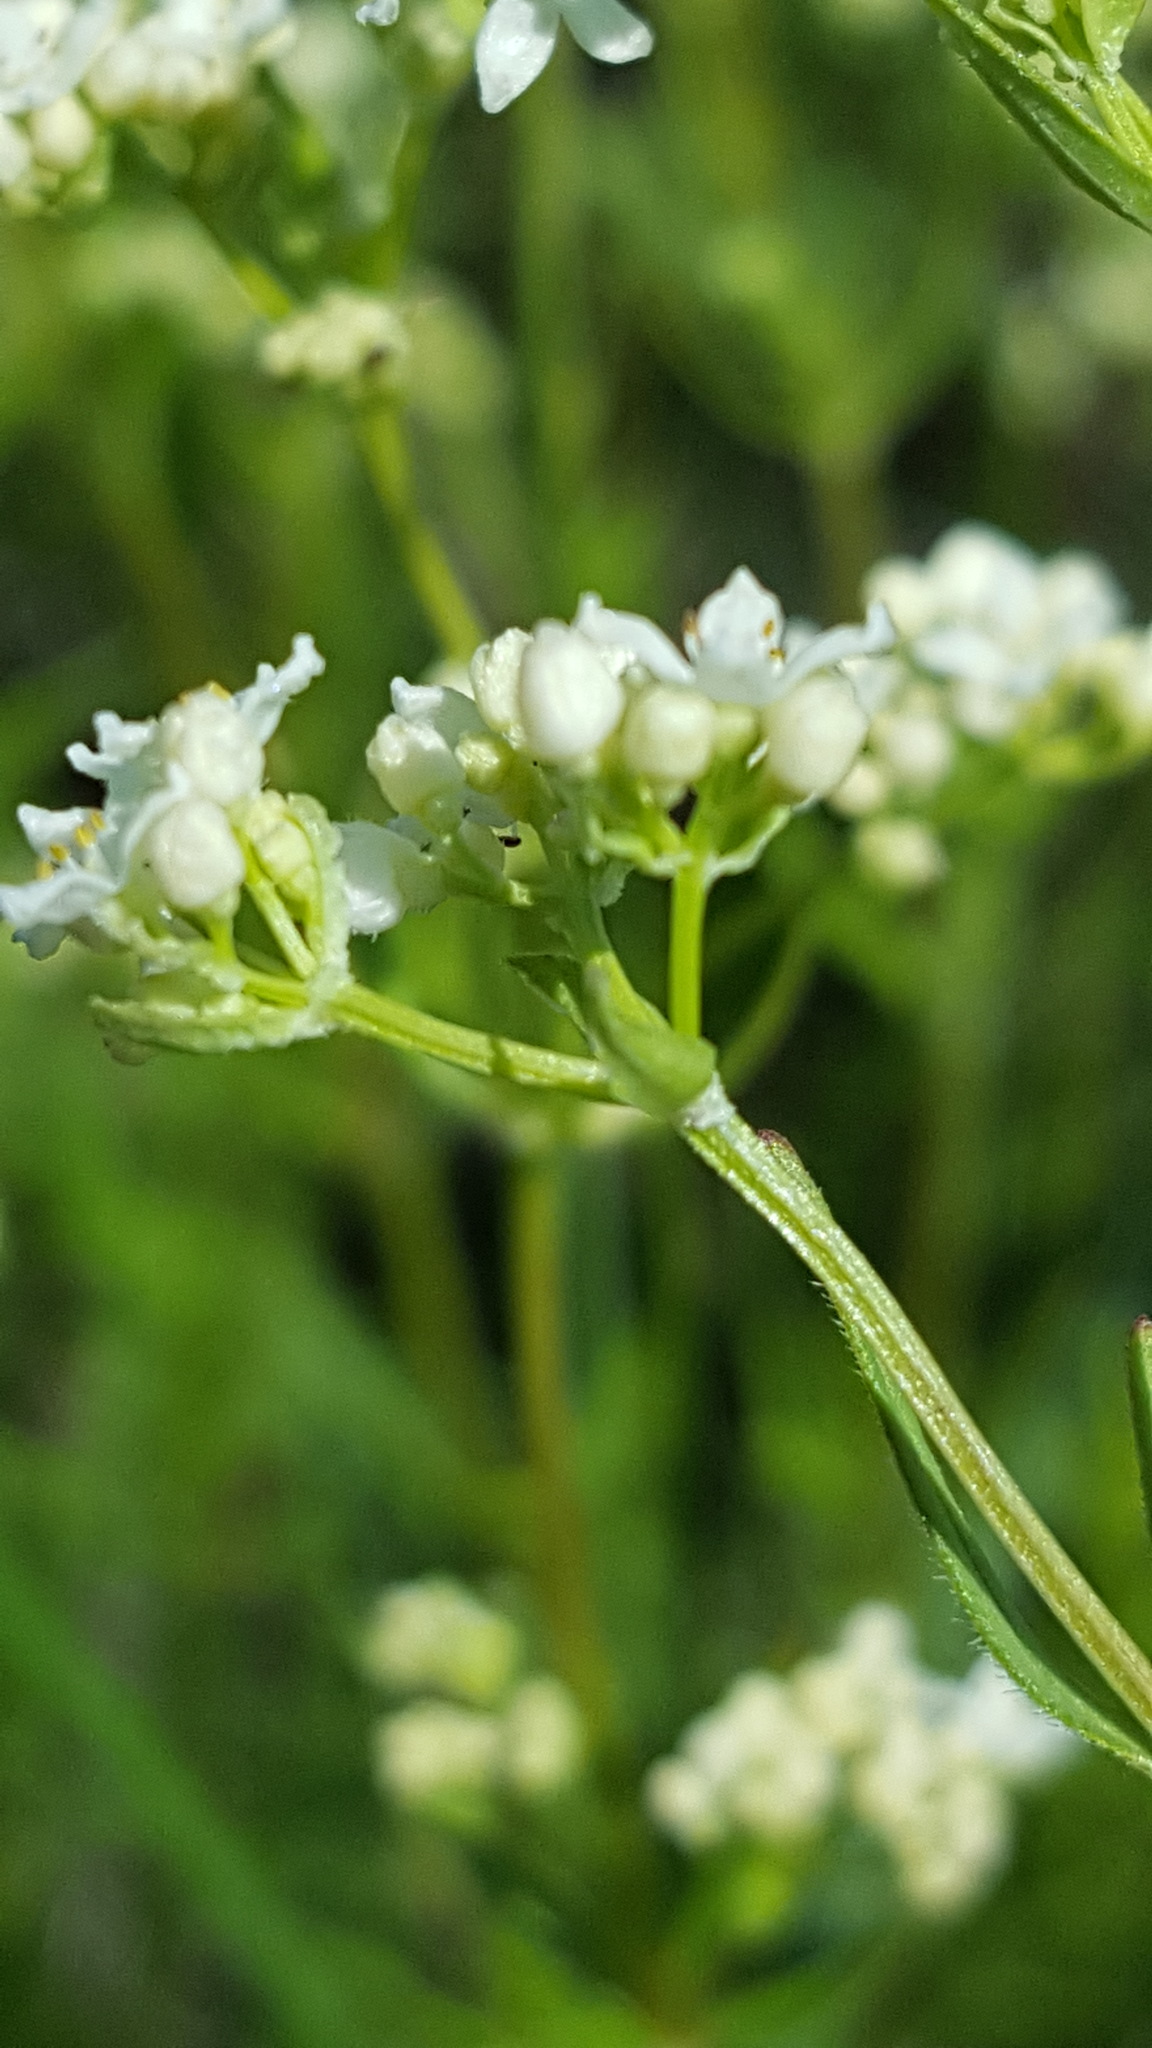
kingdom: Plantae
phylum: Tracheophyta
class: Magnoliopsida
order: Gentianales
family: Rubiaceae
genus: Galium
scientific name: Galium boreale
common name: Northern bedstraw
